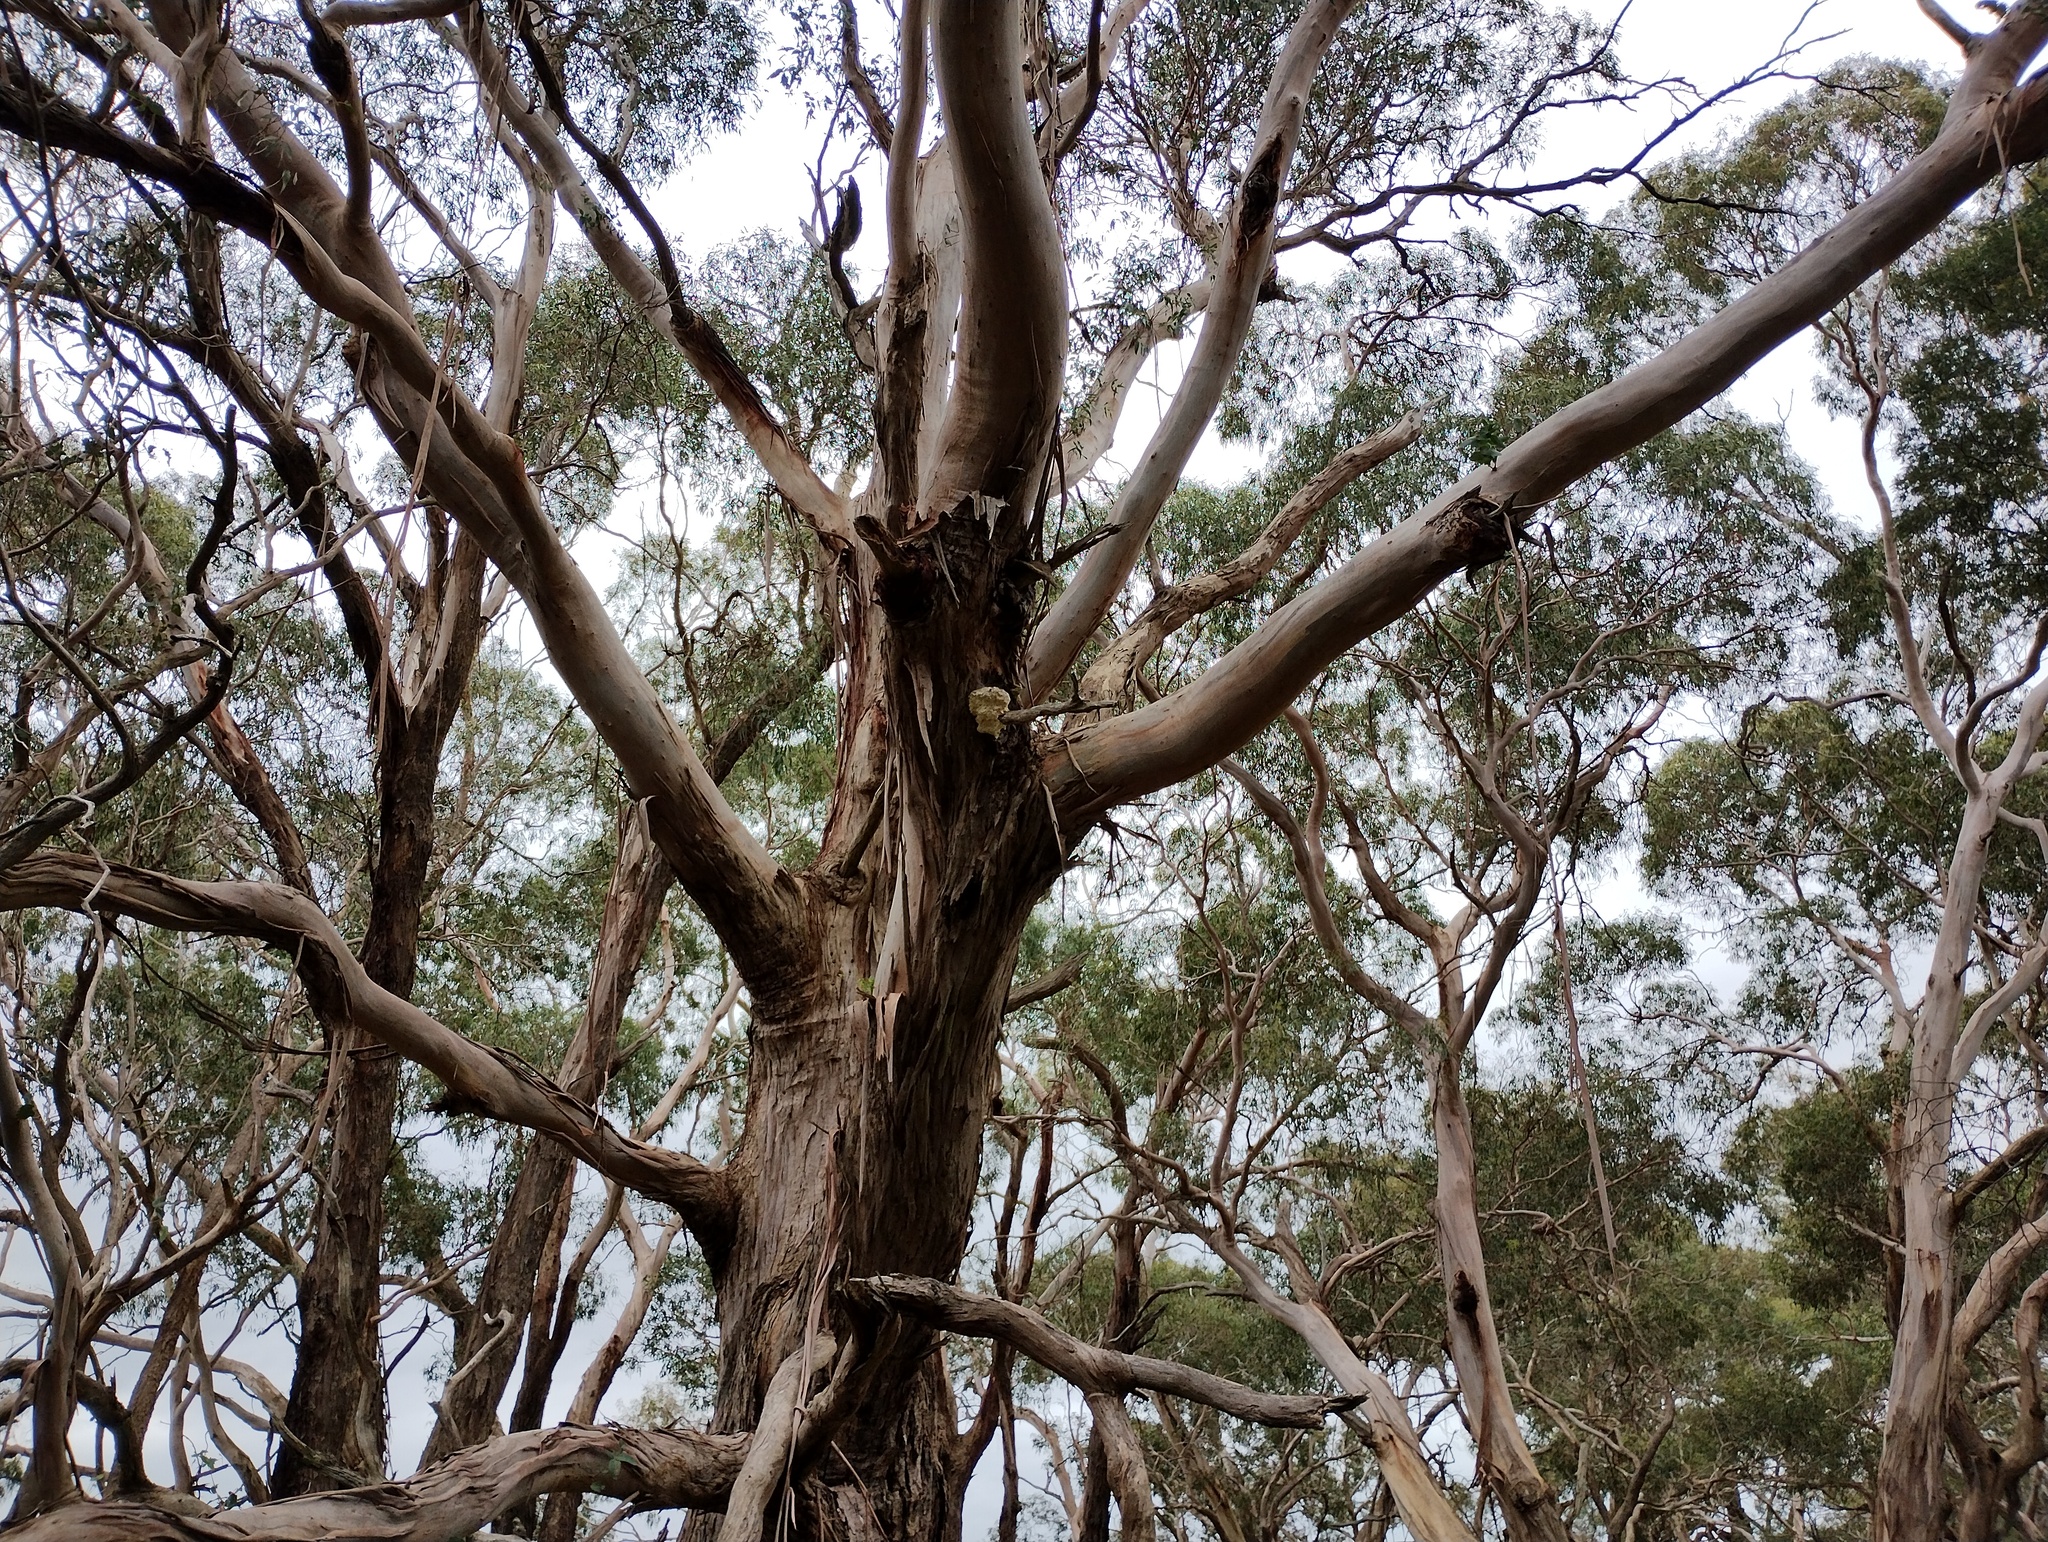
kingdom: Fungi
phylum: Basidiomycota
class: Agaricomycetes
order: Polyporales
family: Laetiporaceae
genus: Laetiporus
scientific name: Laetiporus portentosus
